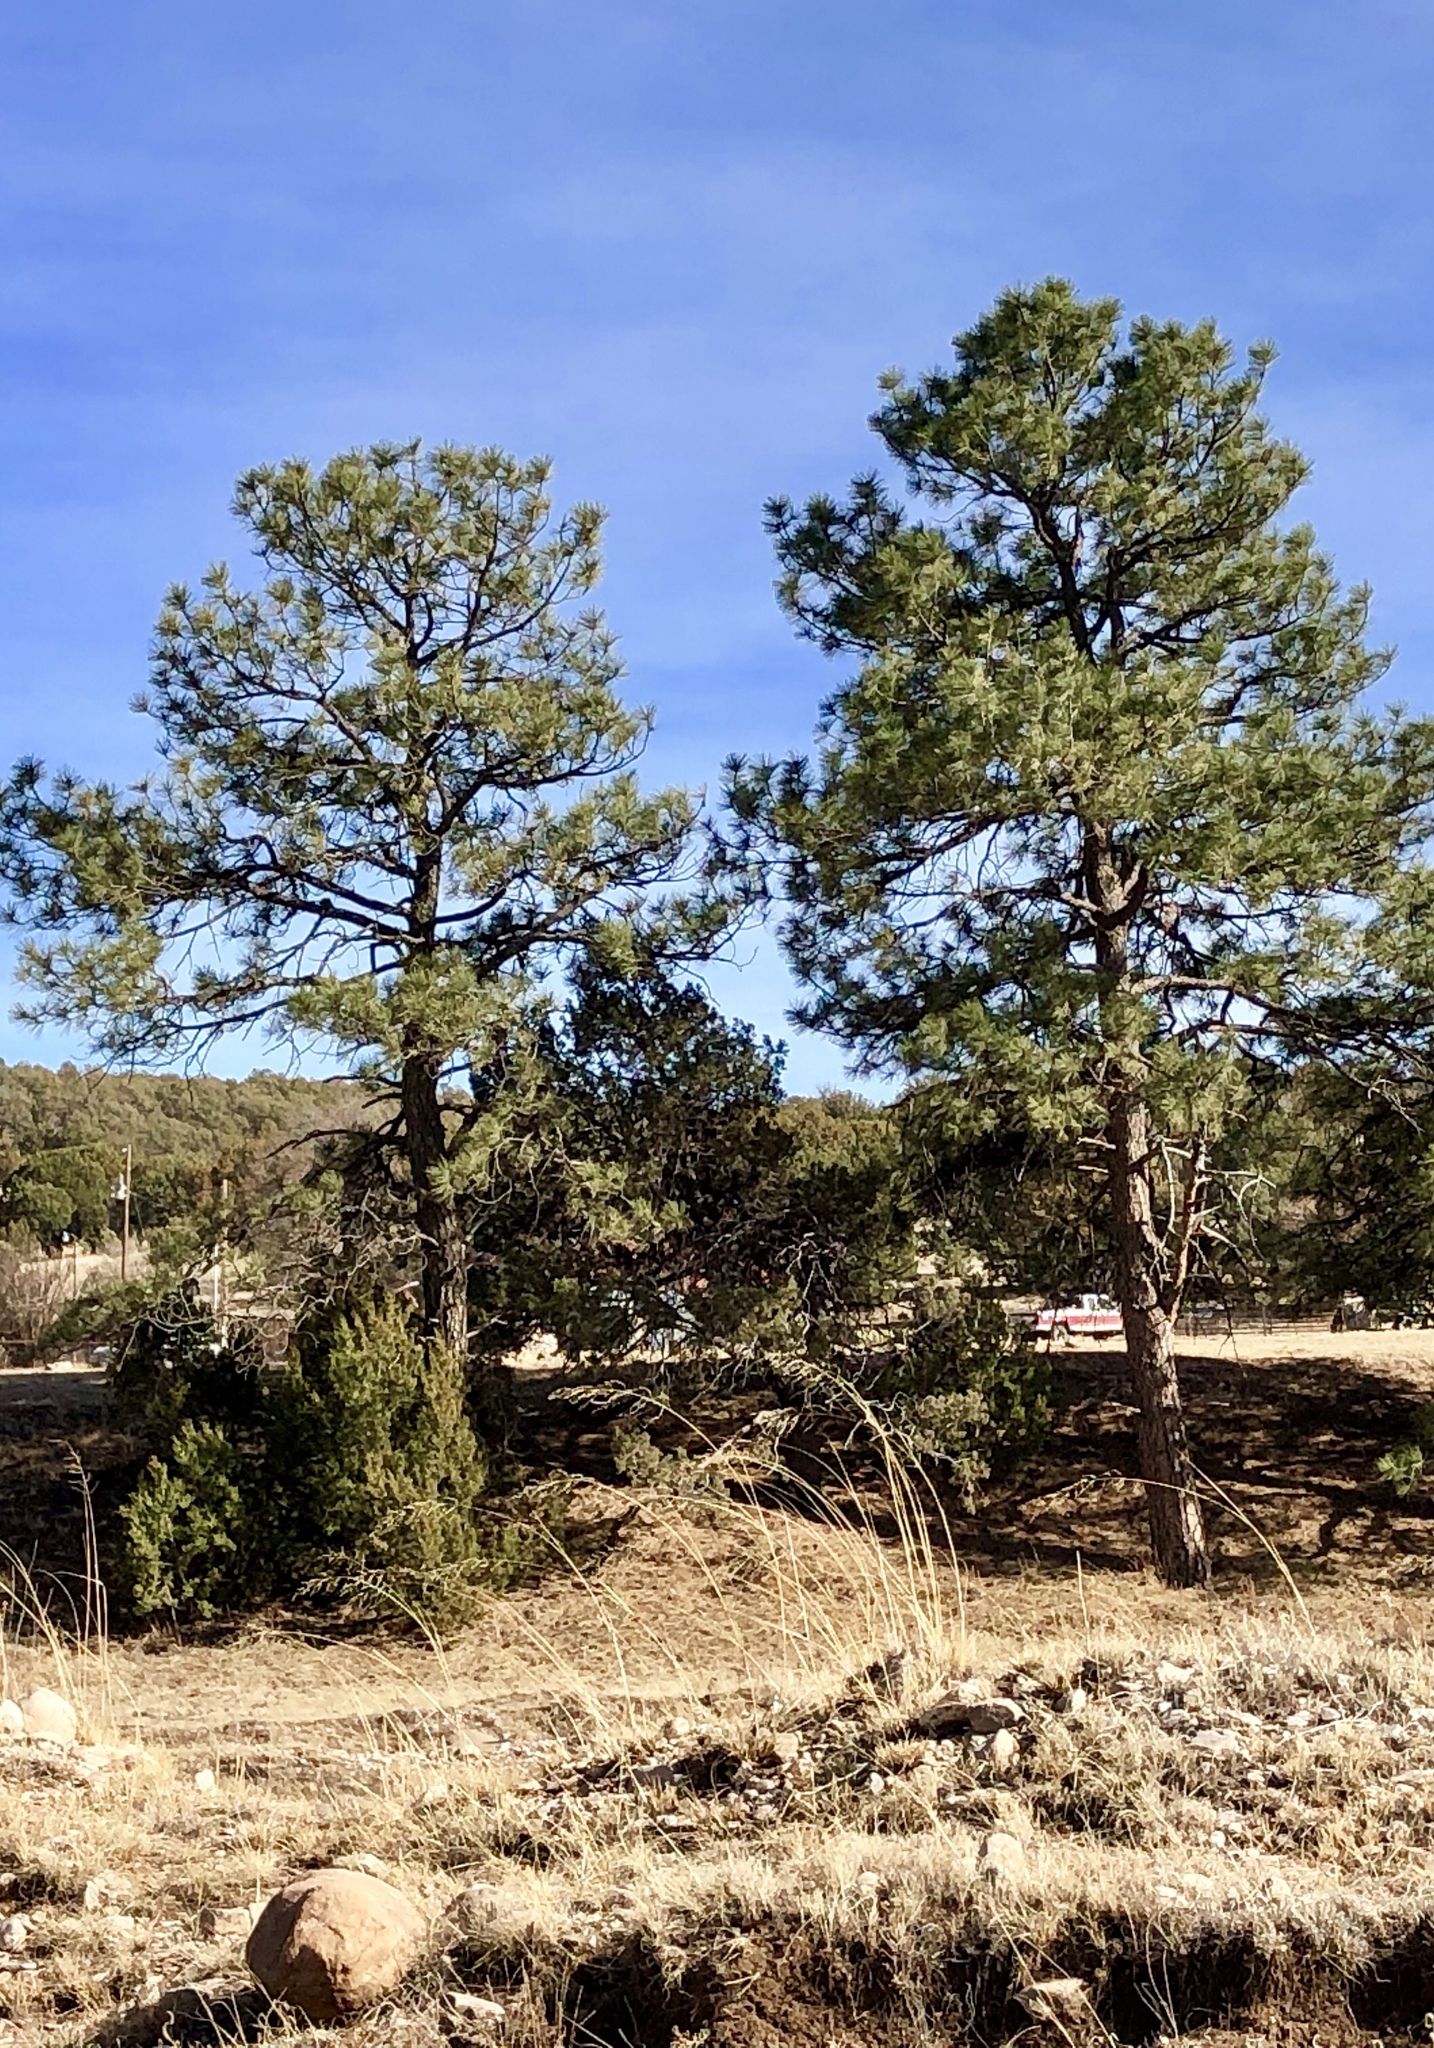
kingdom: Plantae
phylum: Tracheophyta
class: Pinopsida
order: Pinales
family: Pinaceae
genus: Pinus
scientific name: Pinus ponderosa
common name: Western yellow-pine
